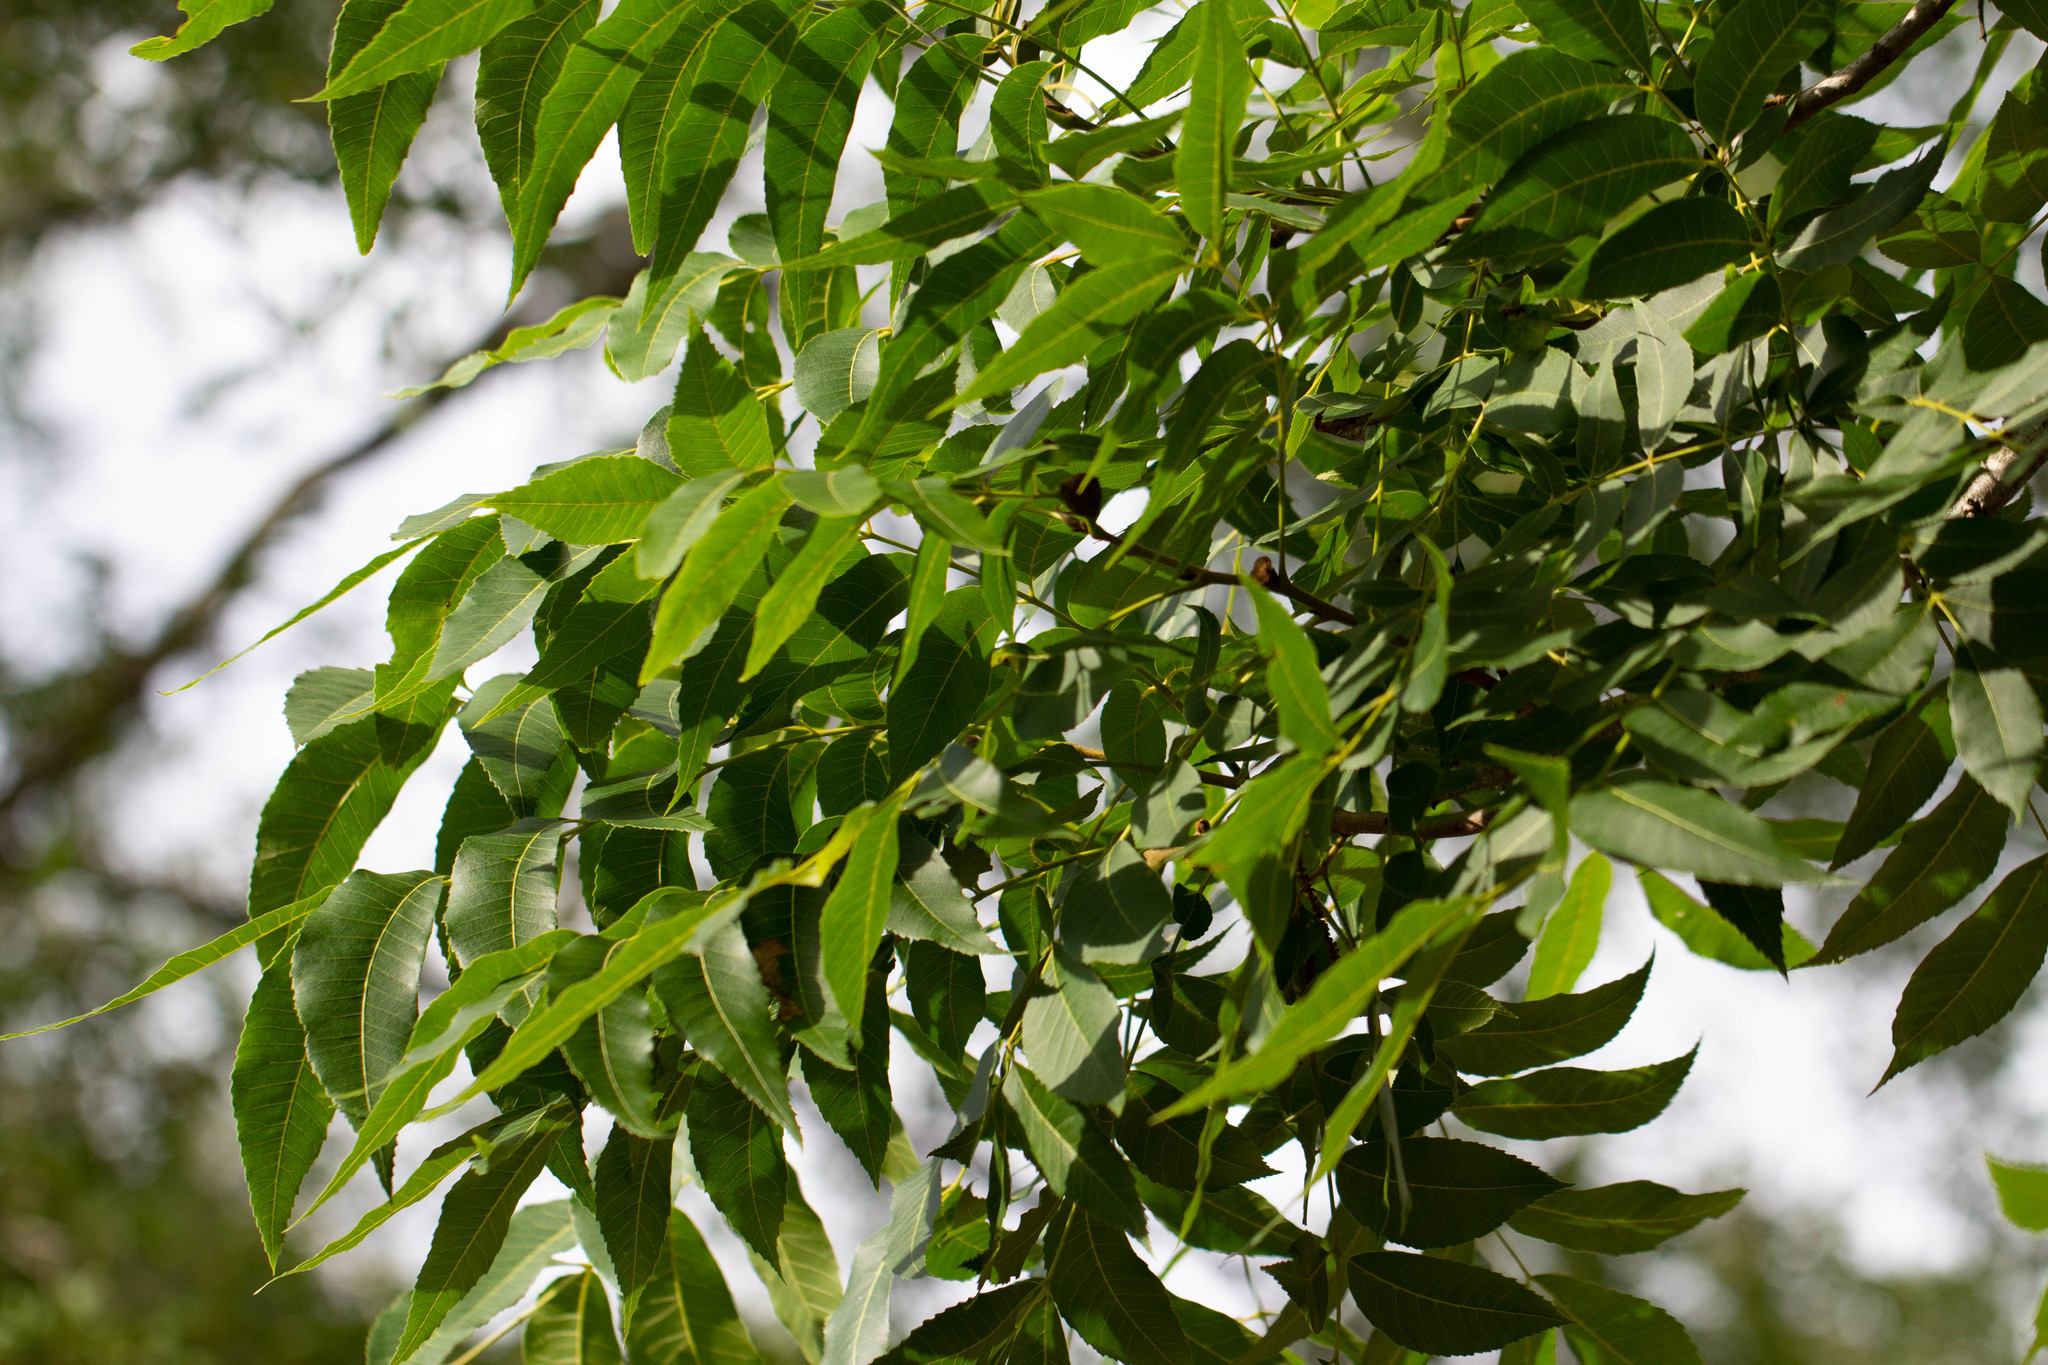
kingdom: Plantae
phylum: Tracheophyta
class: Magnoliopsida
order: Fagales
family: Juglandaceae
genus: Carya
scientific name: Carya illinoinensis
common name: Pecan
